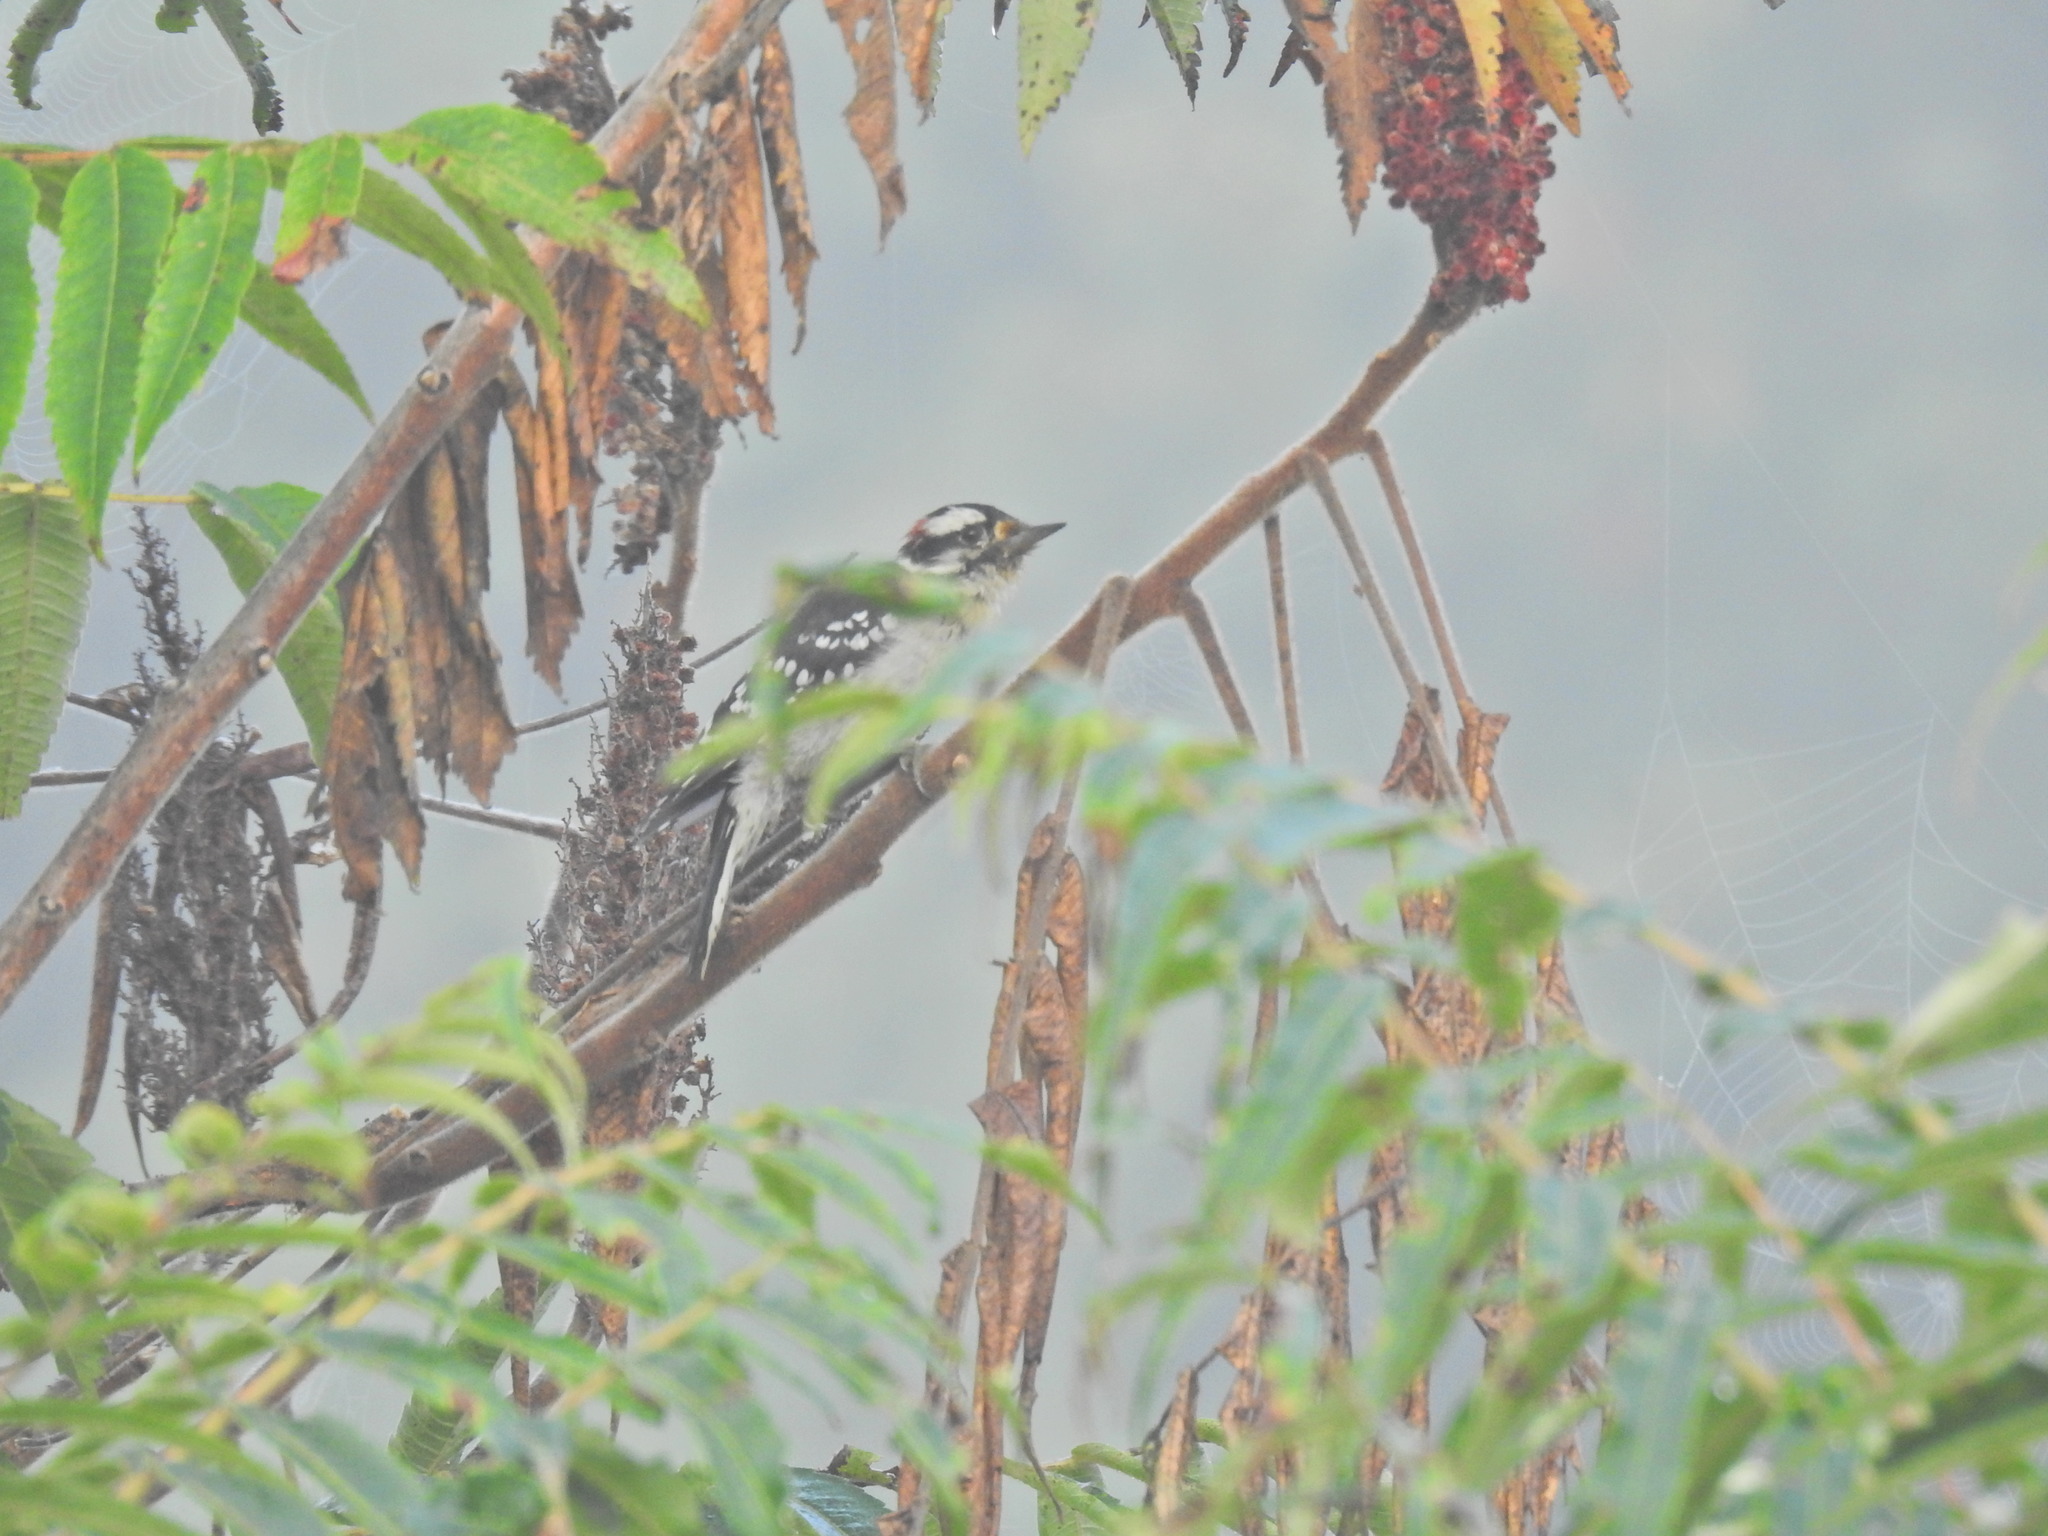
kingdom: Animalia
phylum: Chordata
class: Aves
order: Piciformes
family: Picidae
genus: Dryobates
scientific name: Dryobates pubescens
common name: Downy woodpecker
